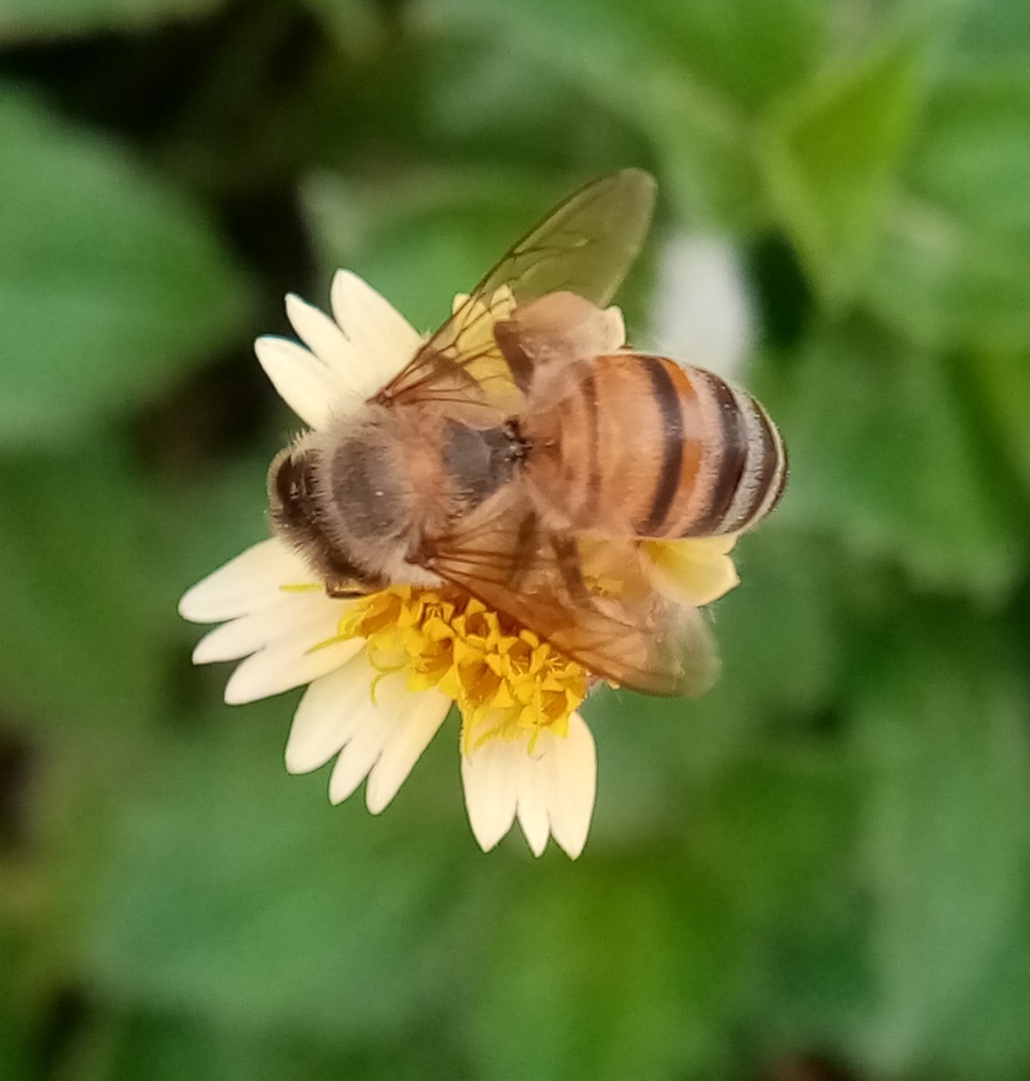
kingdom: Animalia
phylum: Arthropoda
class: Insecta
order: Hymenoptera
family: Apidae
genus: Apis
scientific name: Apis mellifera
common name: Honey bee
